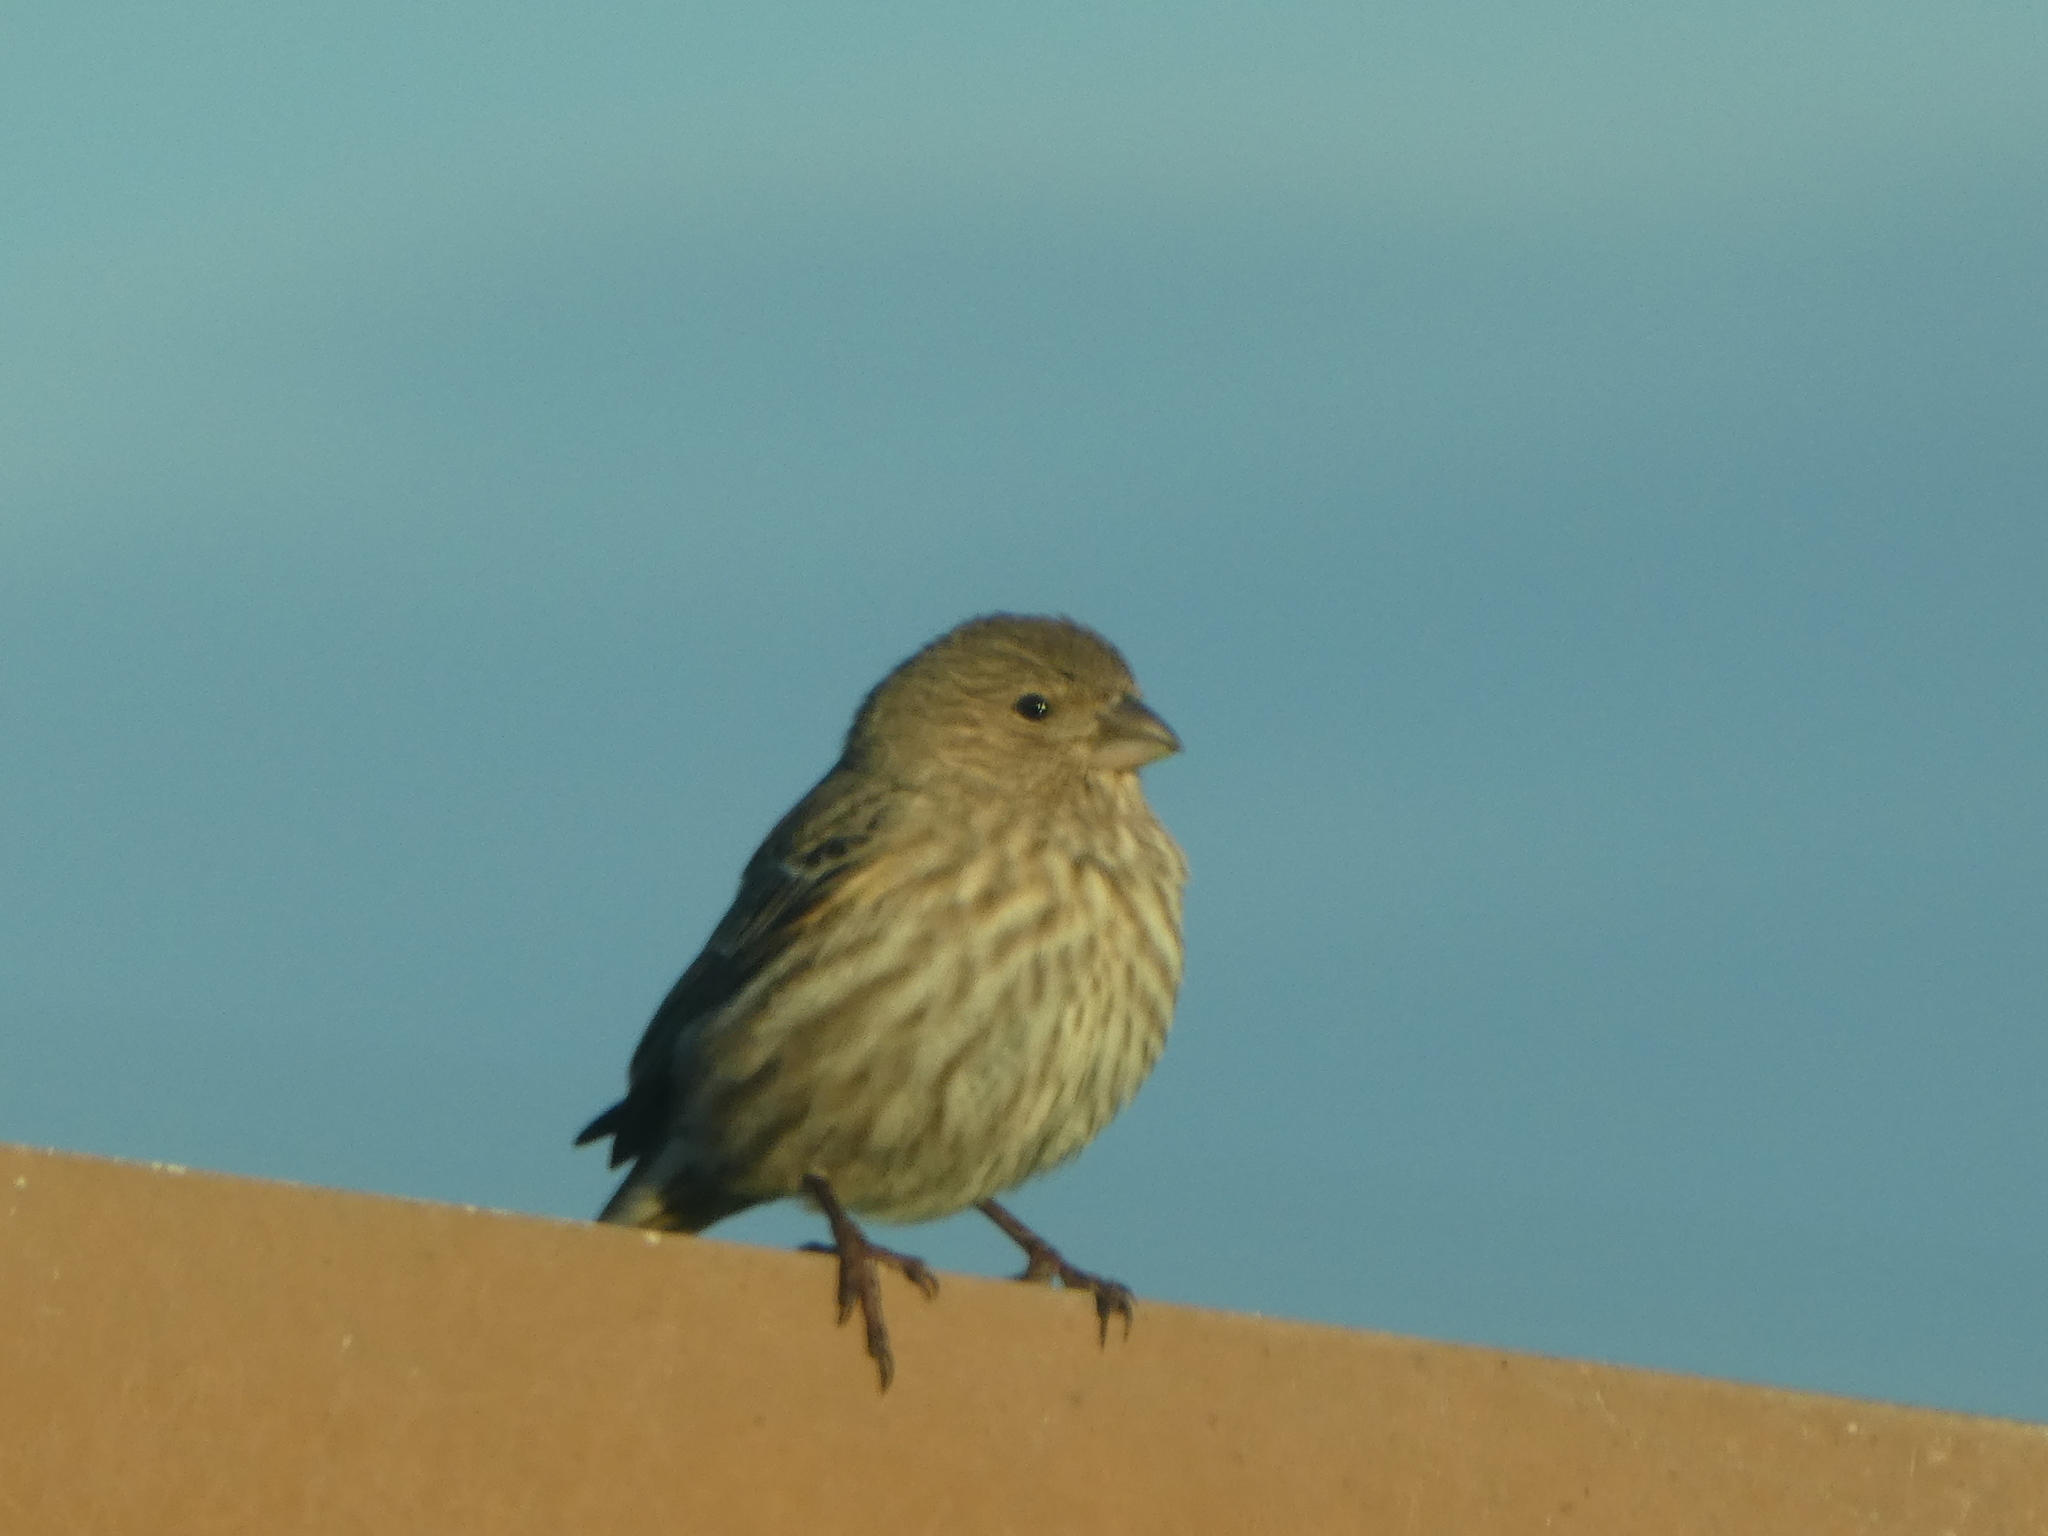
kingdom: Animalia
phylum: Chordata
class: Aves
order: Passeriformes
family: Fringillidae
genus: Haemorhous
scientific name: Haemorhous mexicanus
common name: House finch
